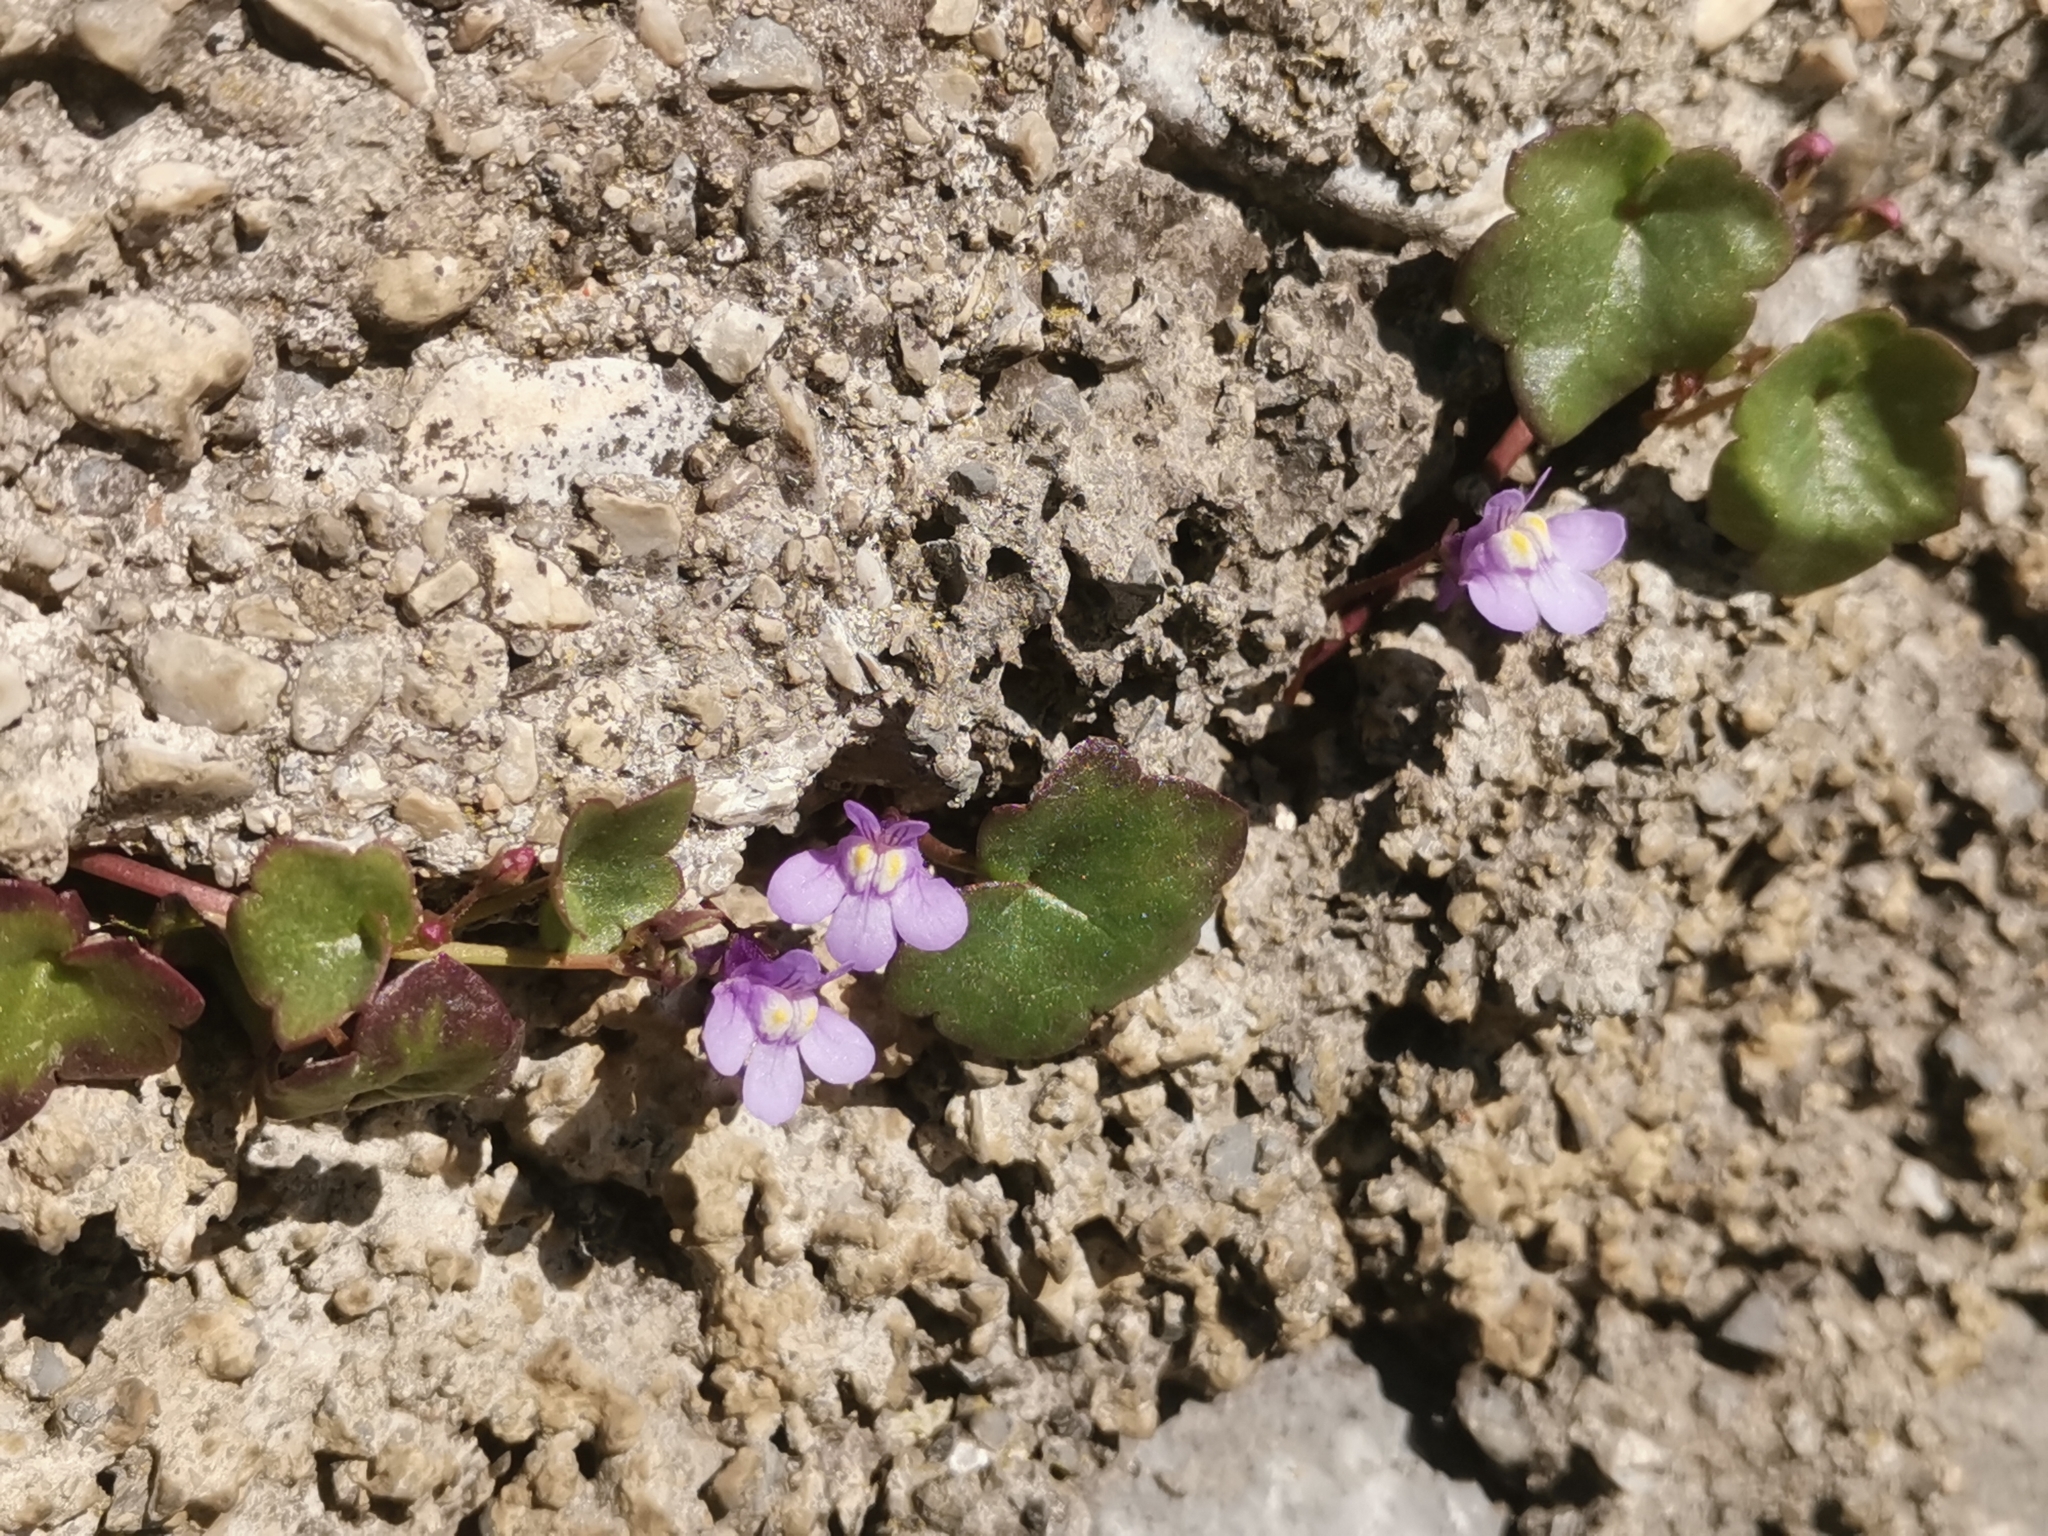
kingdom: Plantae
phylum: Tracheophyta
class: Magnoliopsida
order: Lamiales
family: Plantaginaceae
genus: Cymbalaria
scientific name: Cymbalaria muralis
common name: Ivy-leaved toadflax
